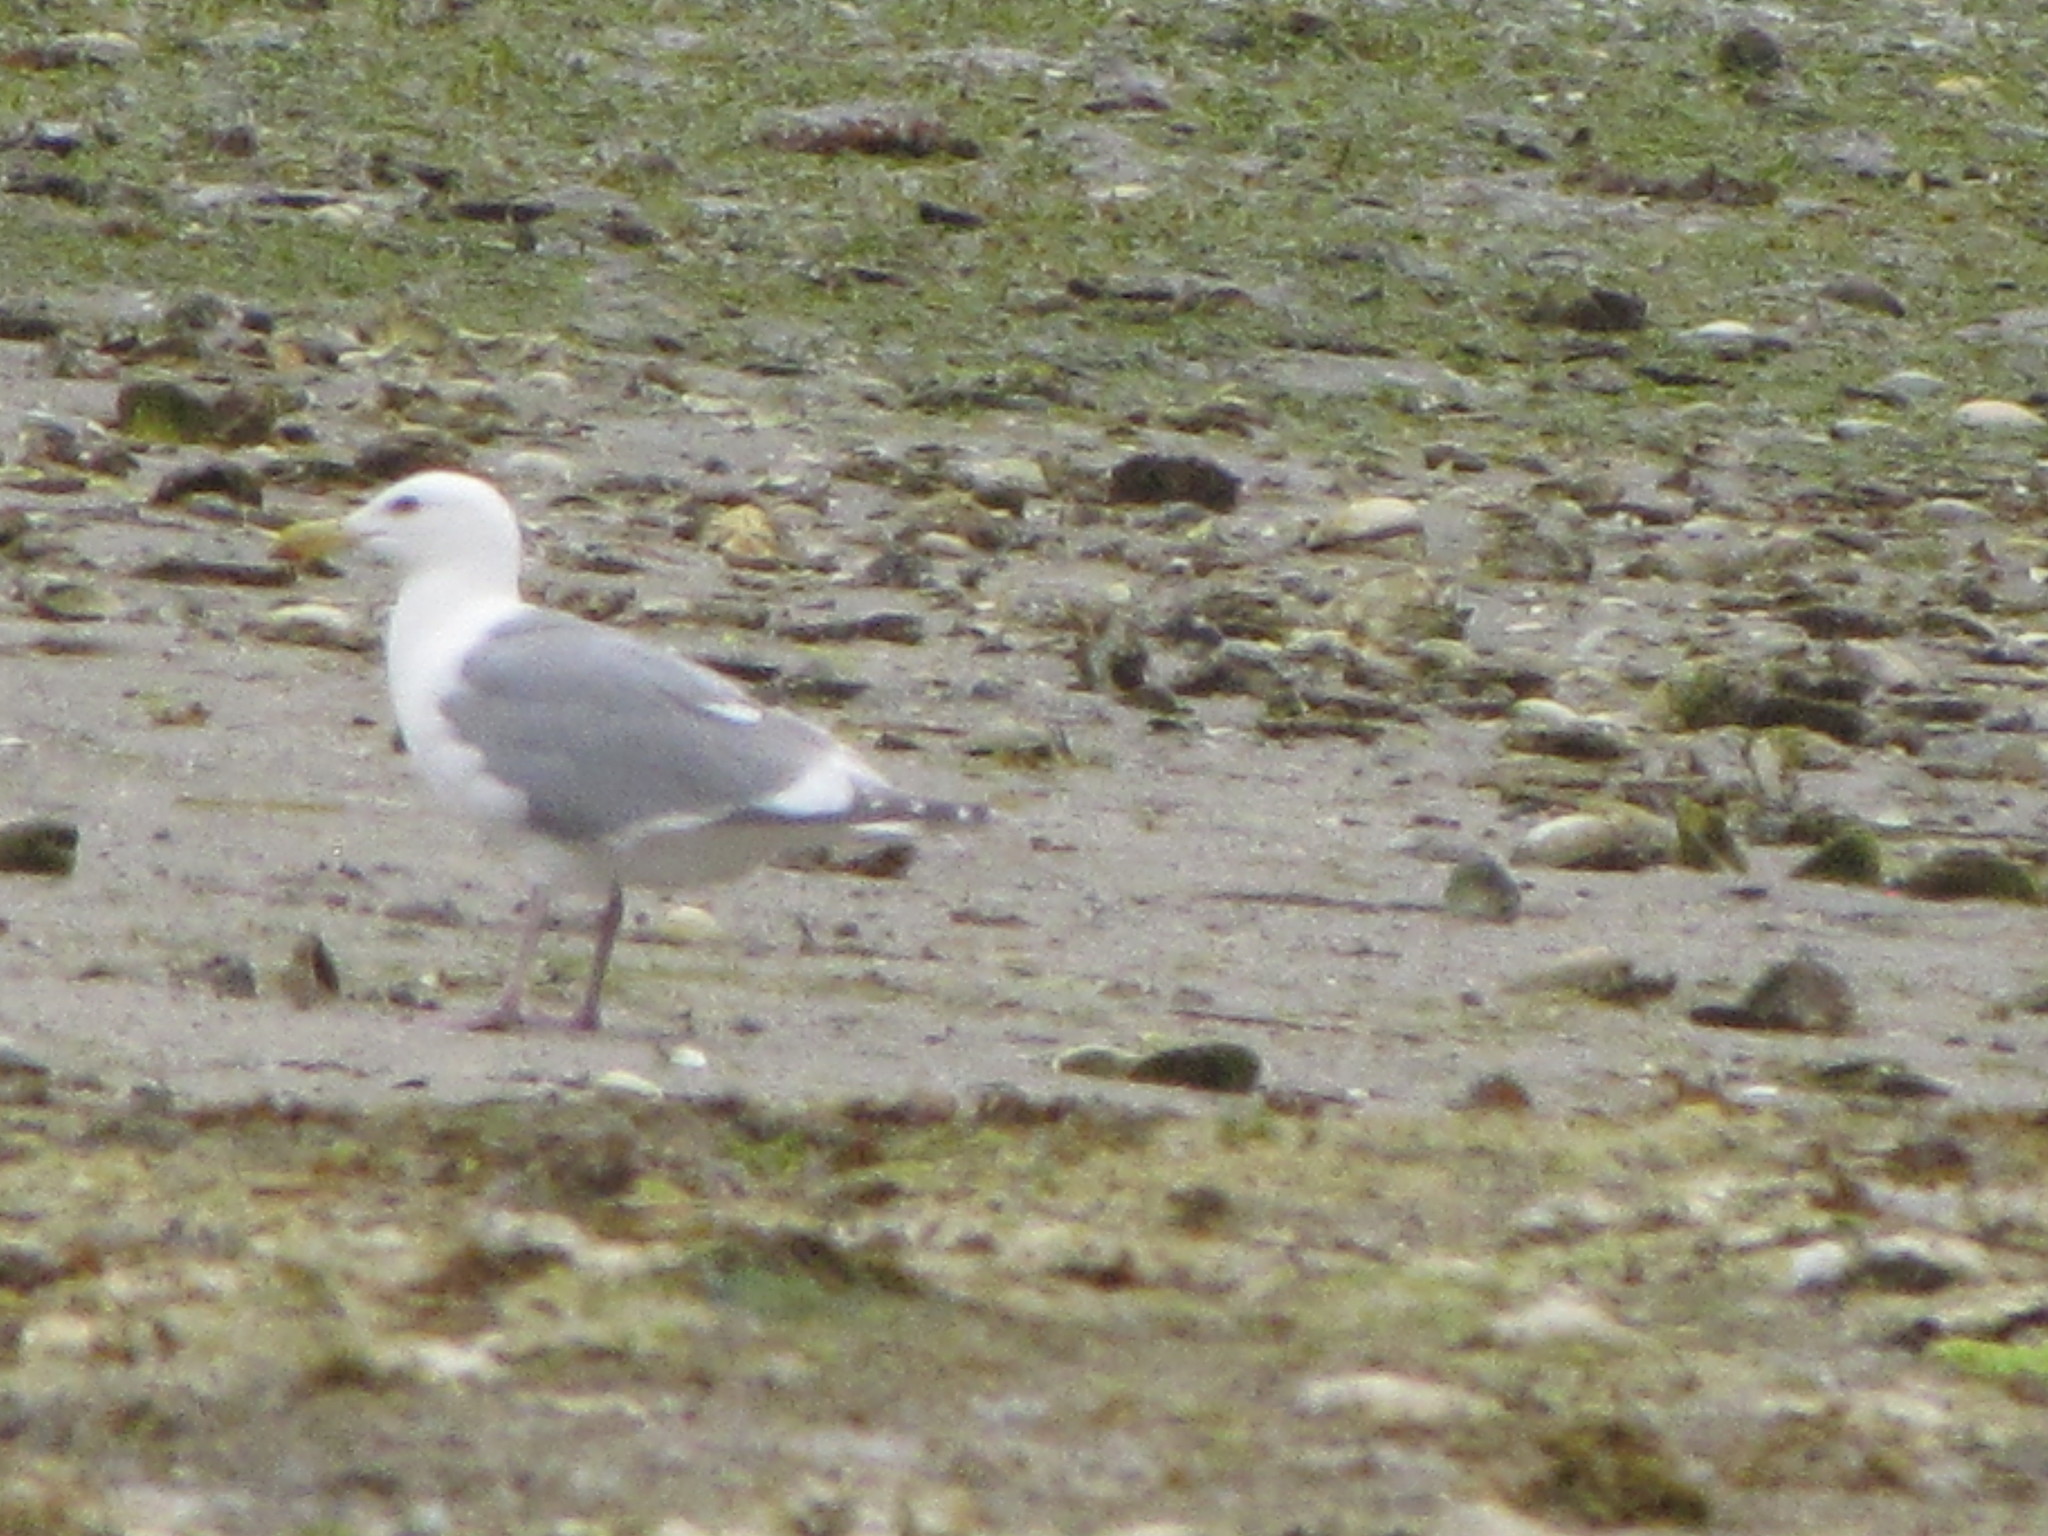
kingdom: Animalia
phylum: Chordata
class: Aves
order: Charadriiformes
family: Laridae
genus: Larus
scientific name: Larus
